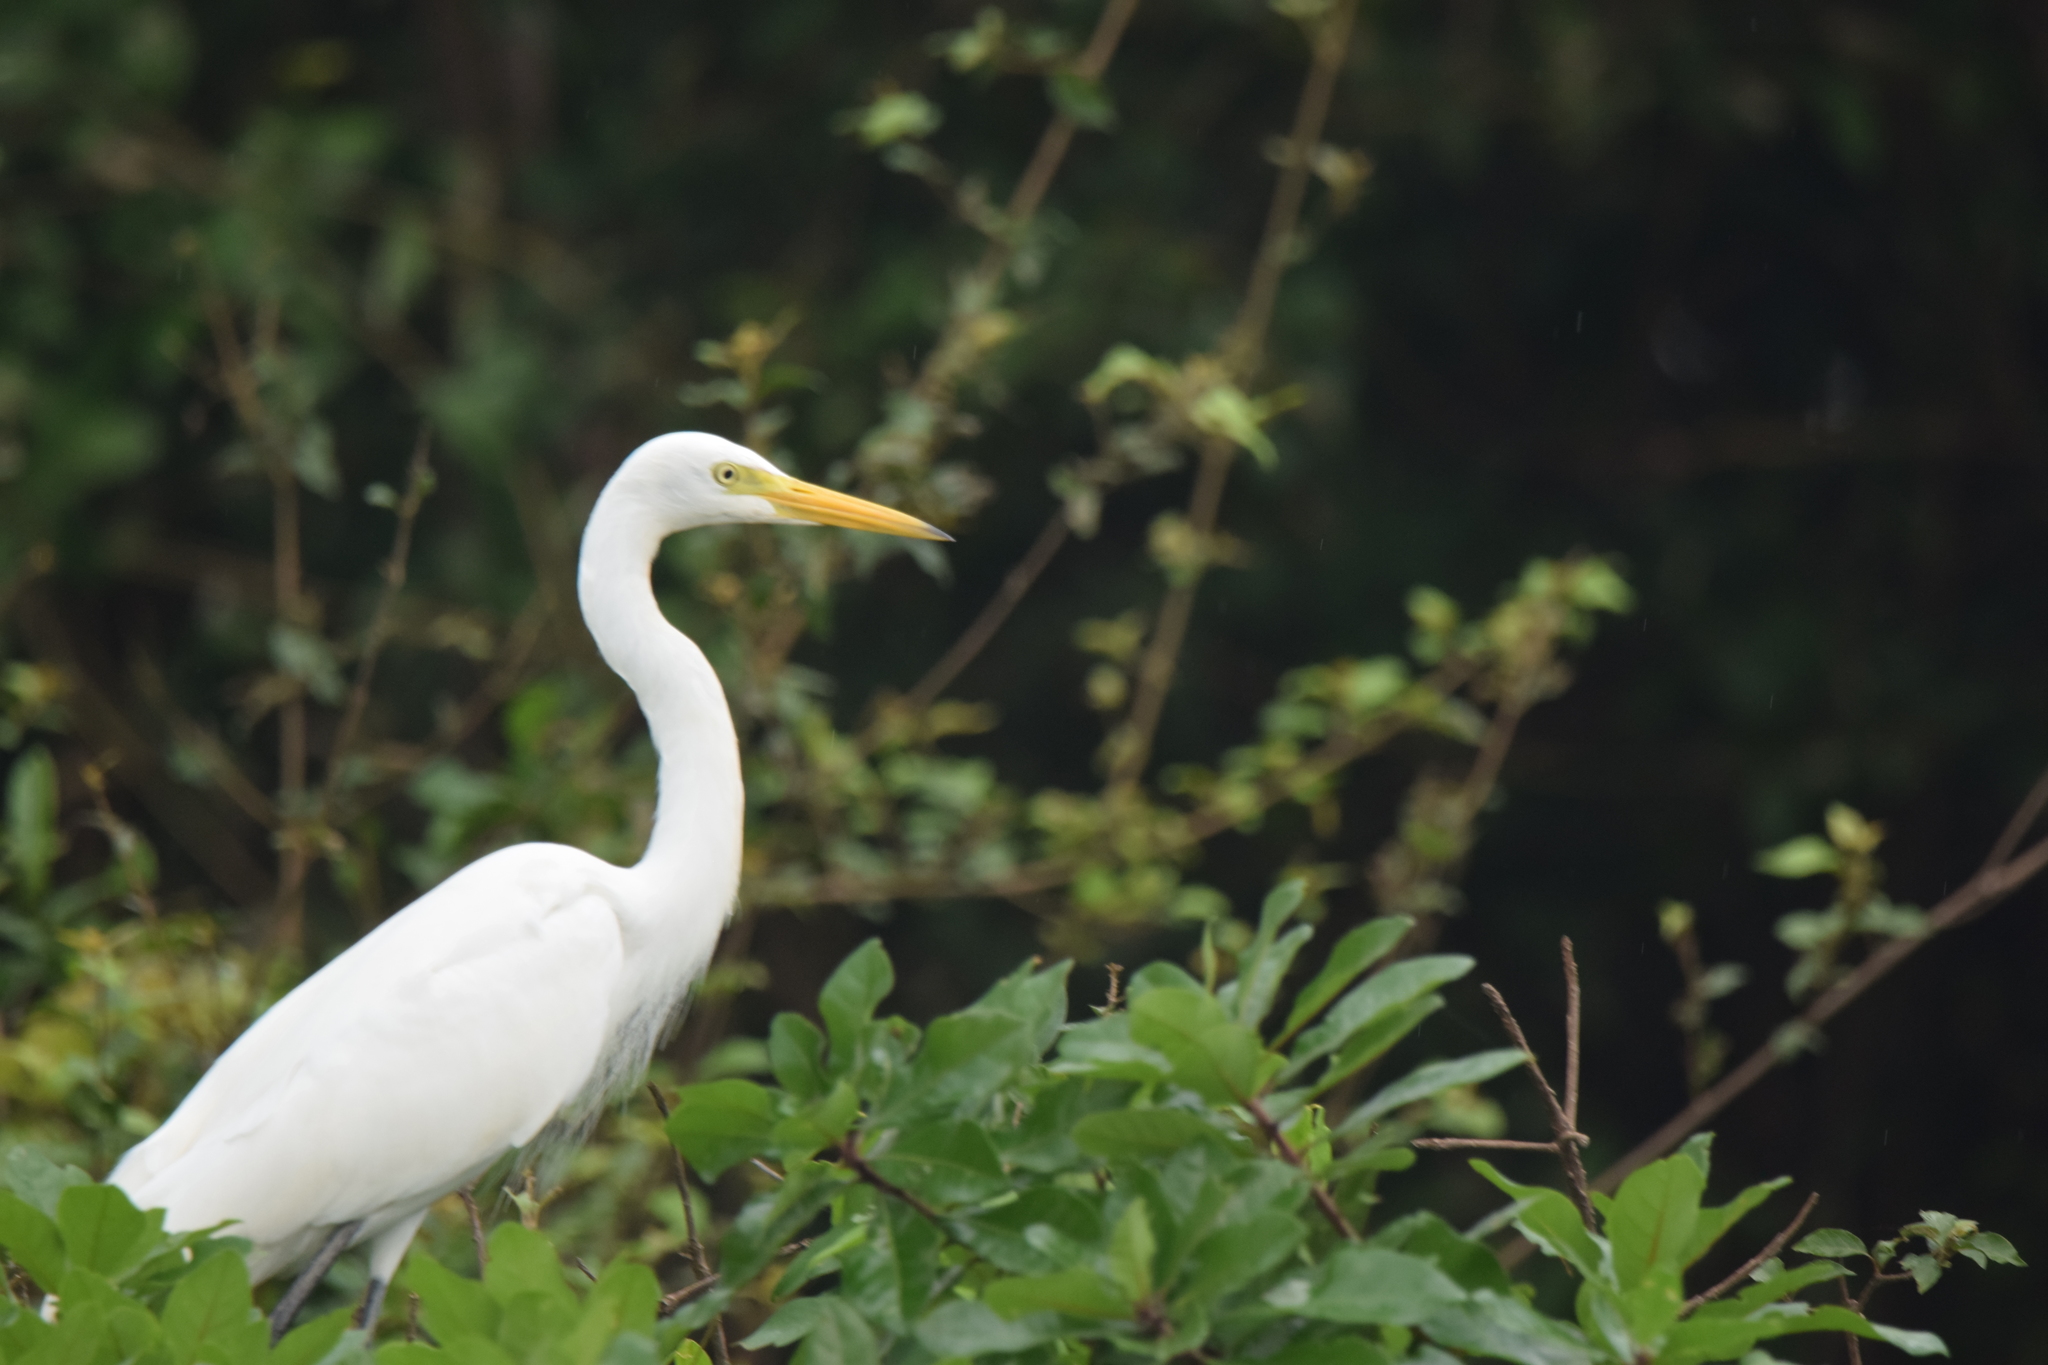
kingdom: Animalia
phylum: Chordata
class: Aves
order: Pelecaniformes
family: Ardeidae
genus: Egretta
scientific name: Egretta intermedia
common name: Intermediate egret
